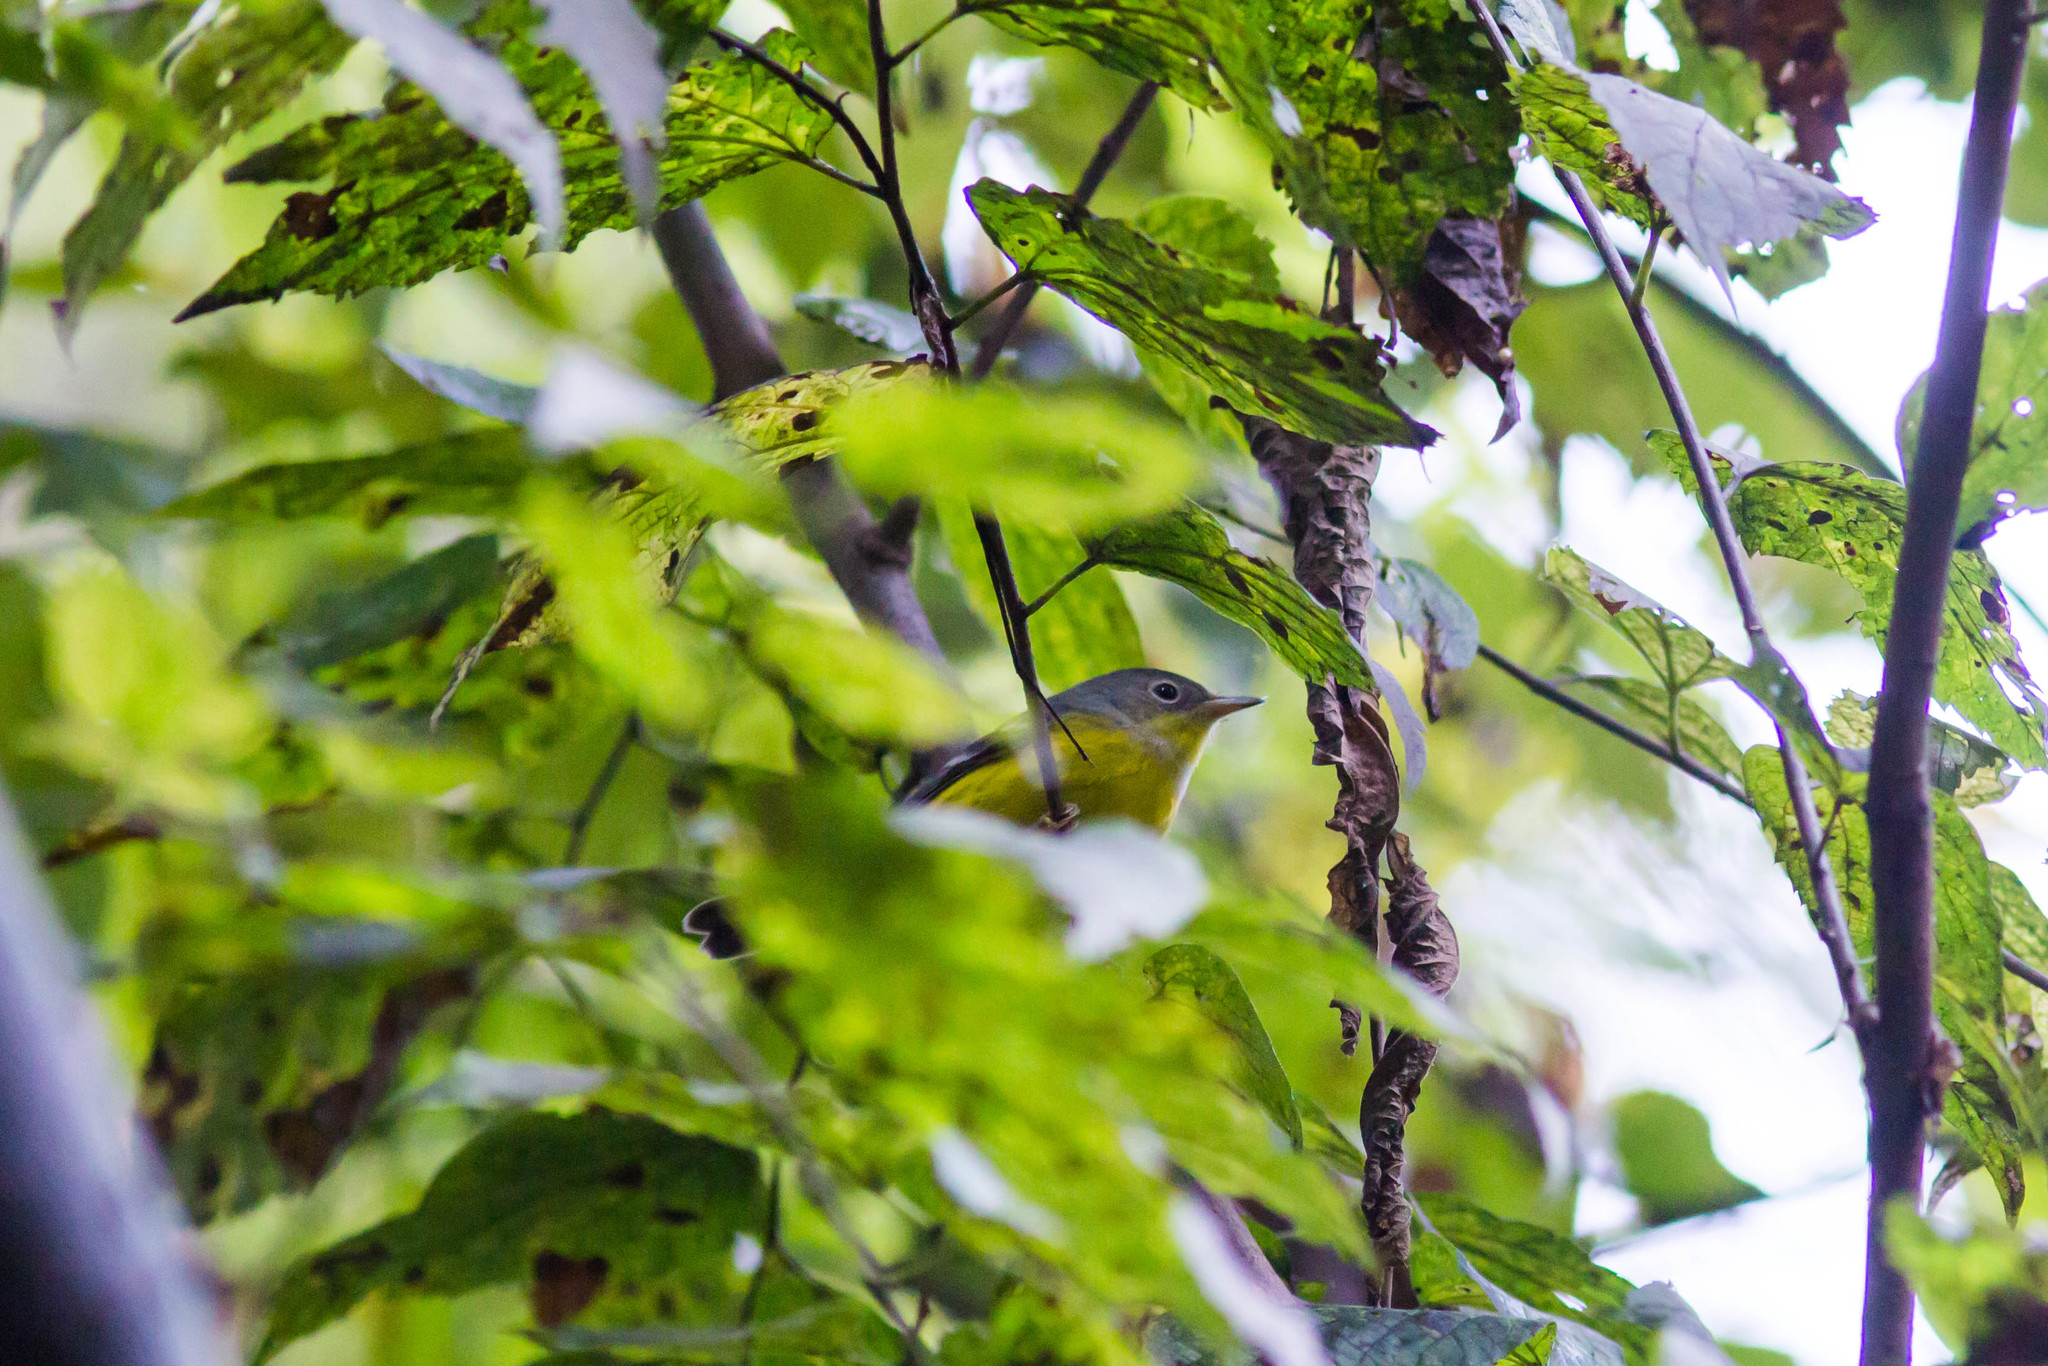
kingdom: Animalia
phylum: Chordata
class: Aves
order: Passeriformes
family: Parulidae
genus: Leiothlypis
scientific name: Leiothlypis ruficapilla
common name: Nashville warbler
